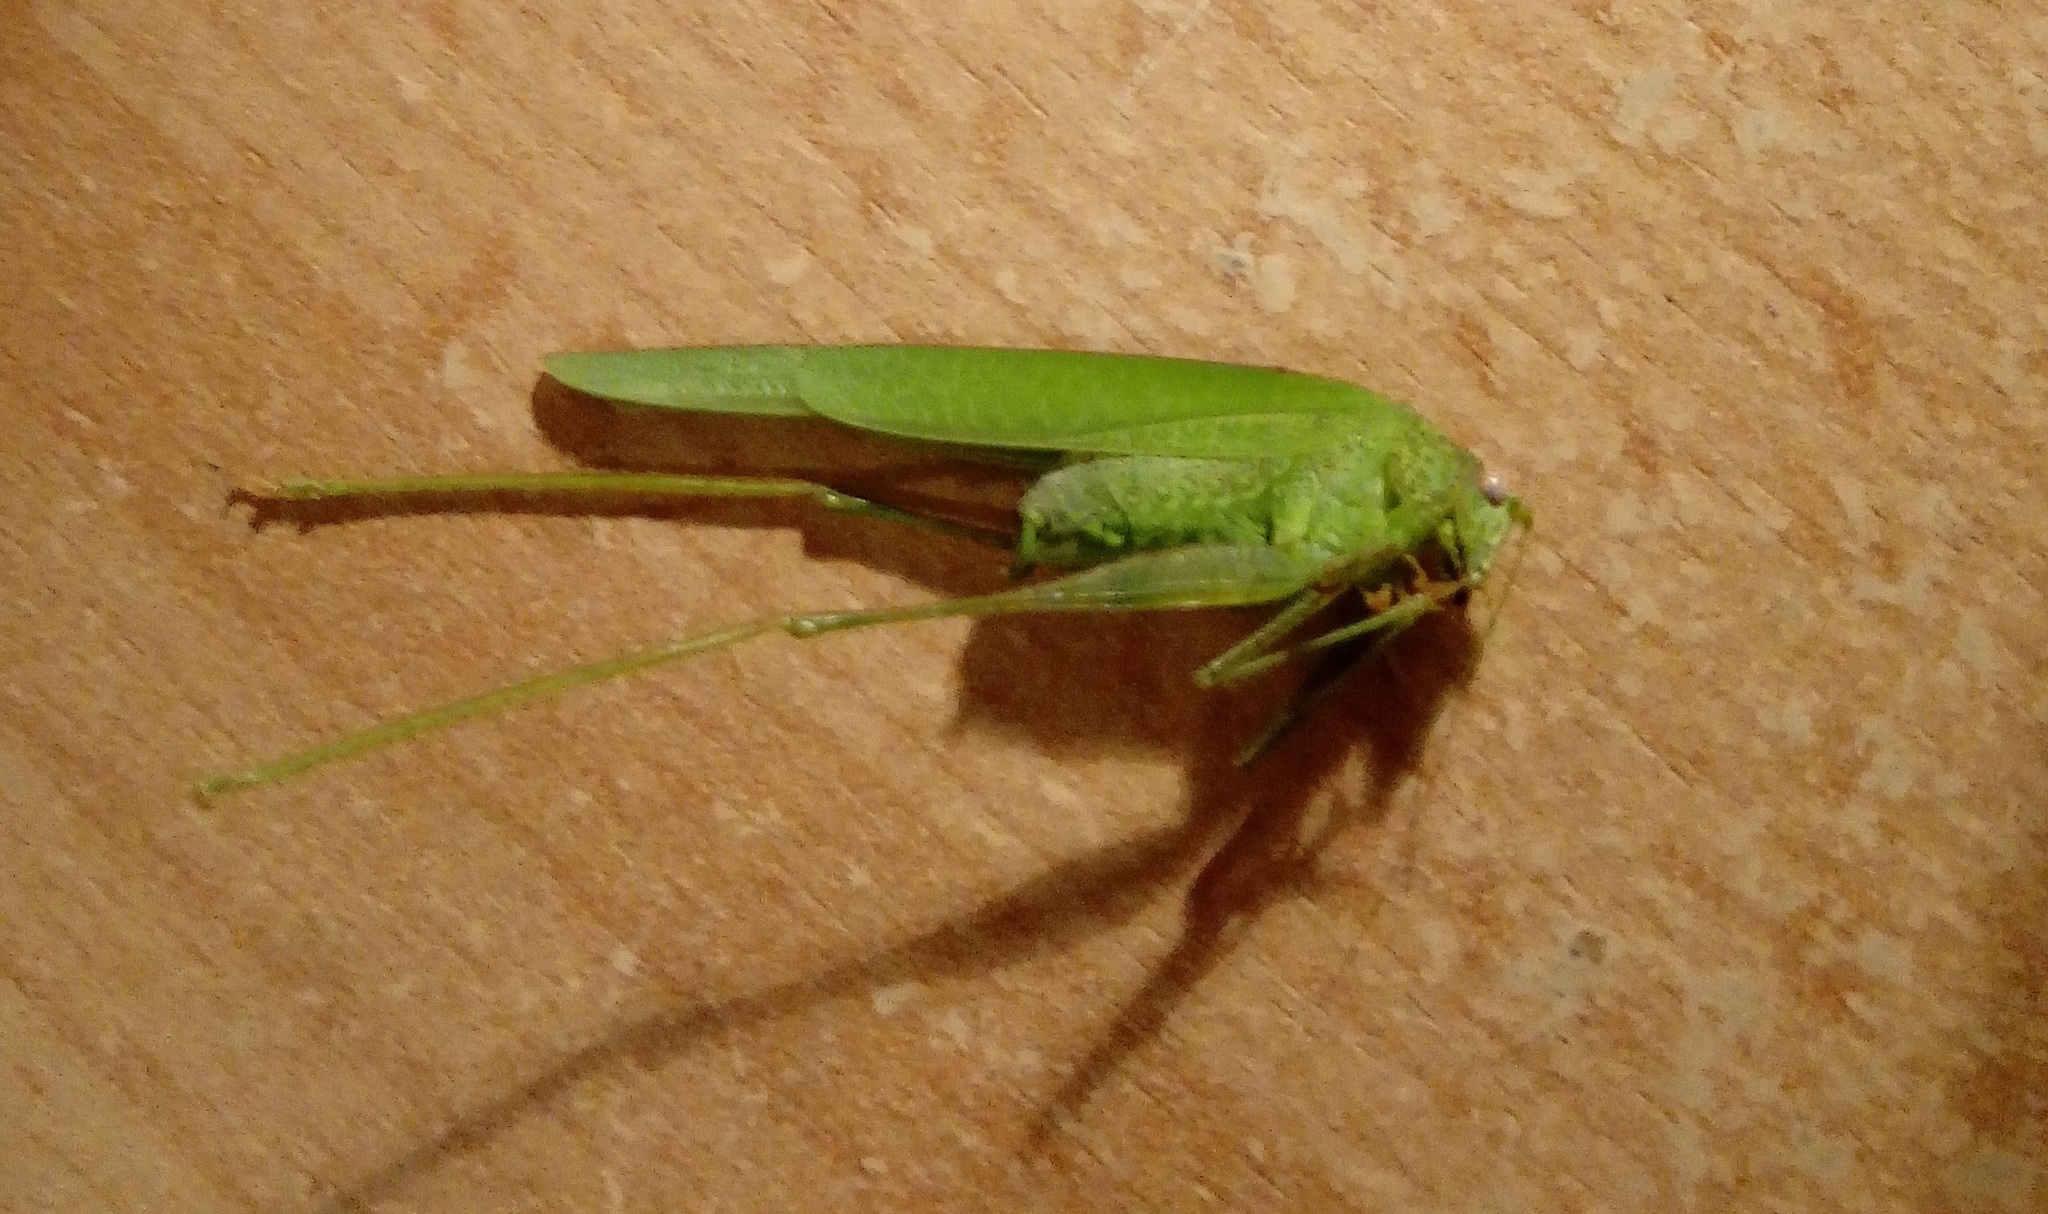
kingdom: Animalia
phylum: Arthropoda
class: Insecta
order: Orthoptera
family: Tettigoniidae
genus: Phaneroptera
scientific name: Phaneroptera nana
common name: Southern sickle bush-cricket
